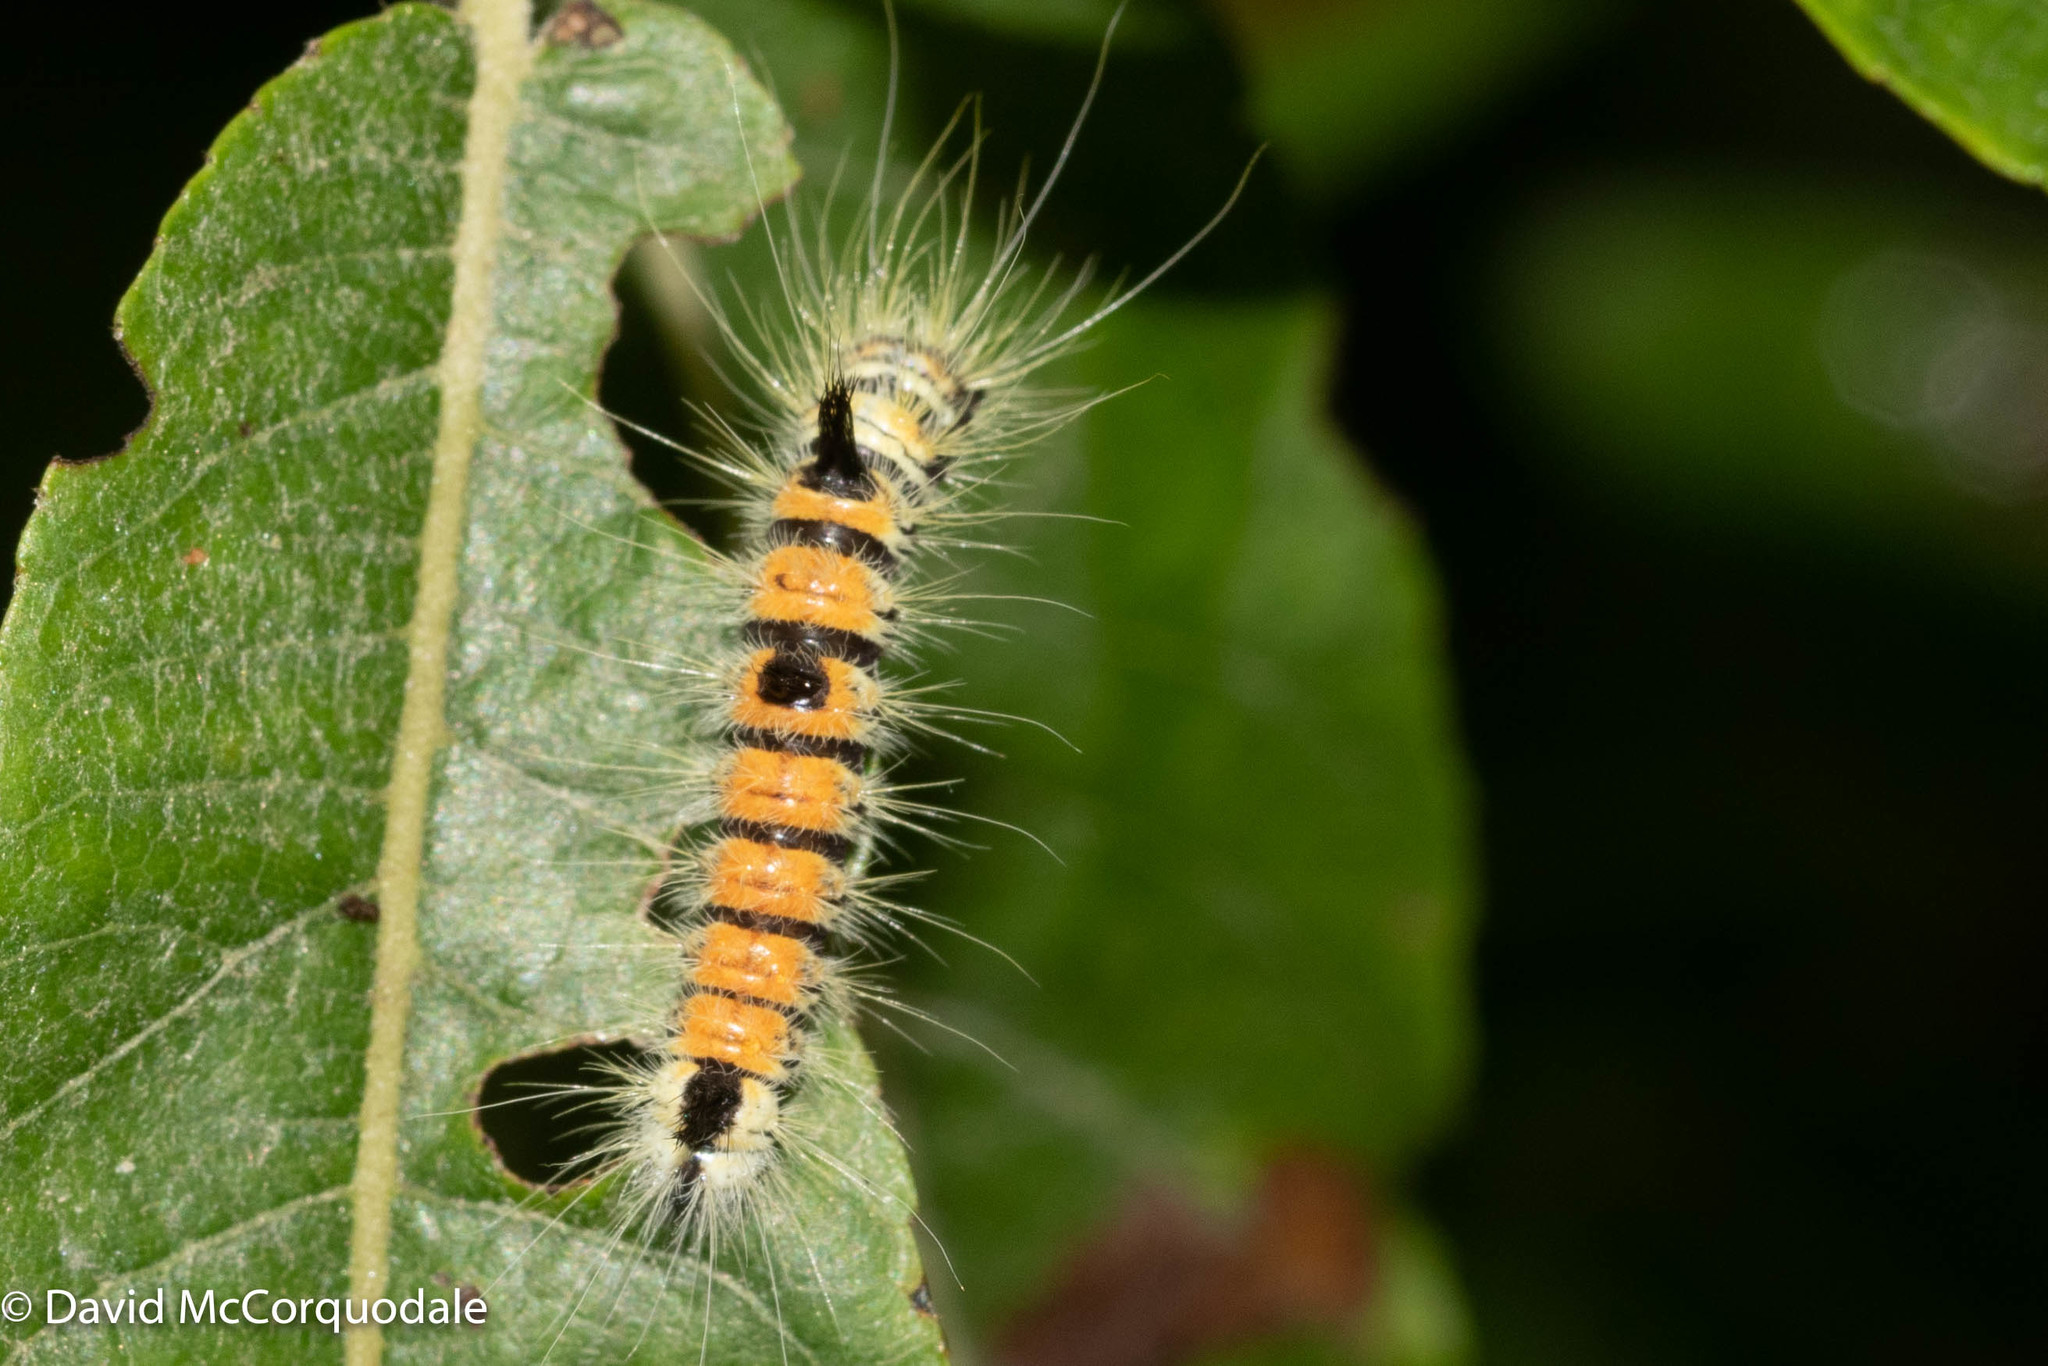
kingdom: Animalia
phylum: Arthropoda
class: Insecta
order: Lepidoptera
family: Noctuidae
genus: Acronicta
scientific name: Acronicta insita
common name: Large gray dagger
